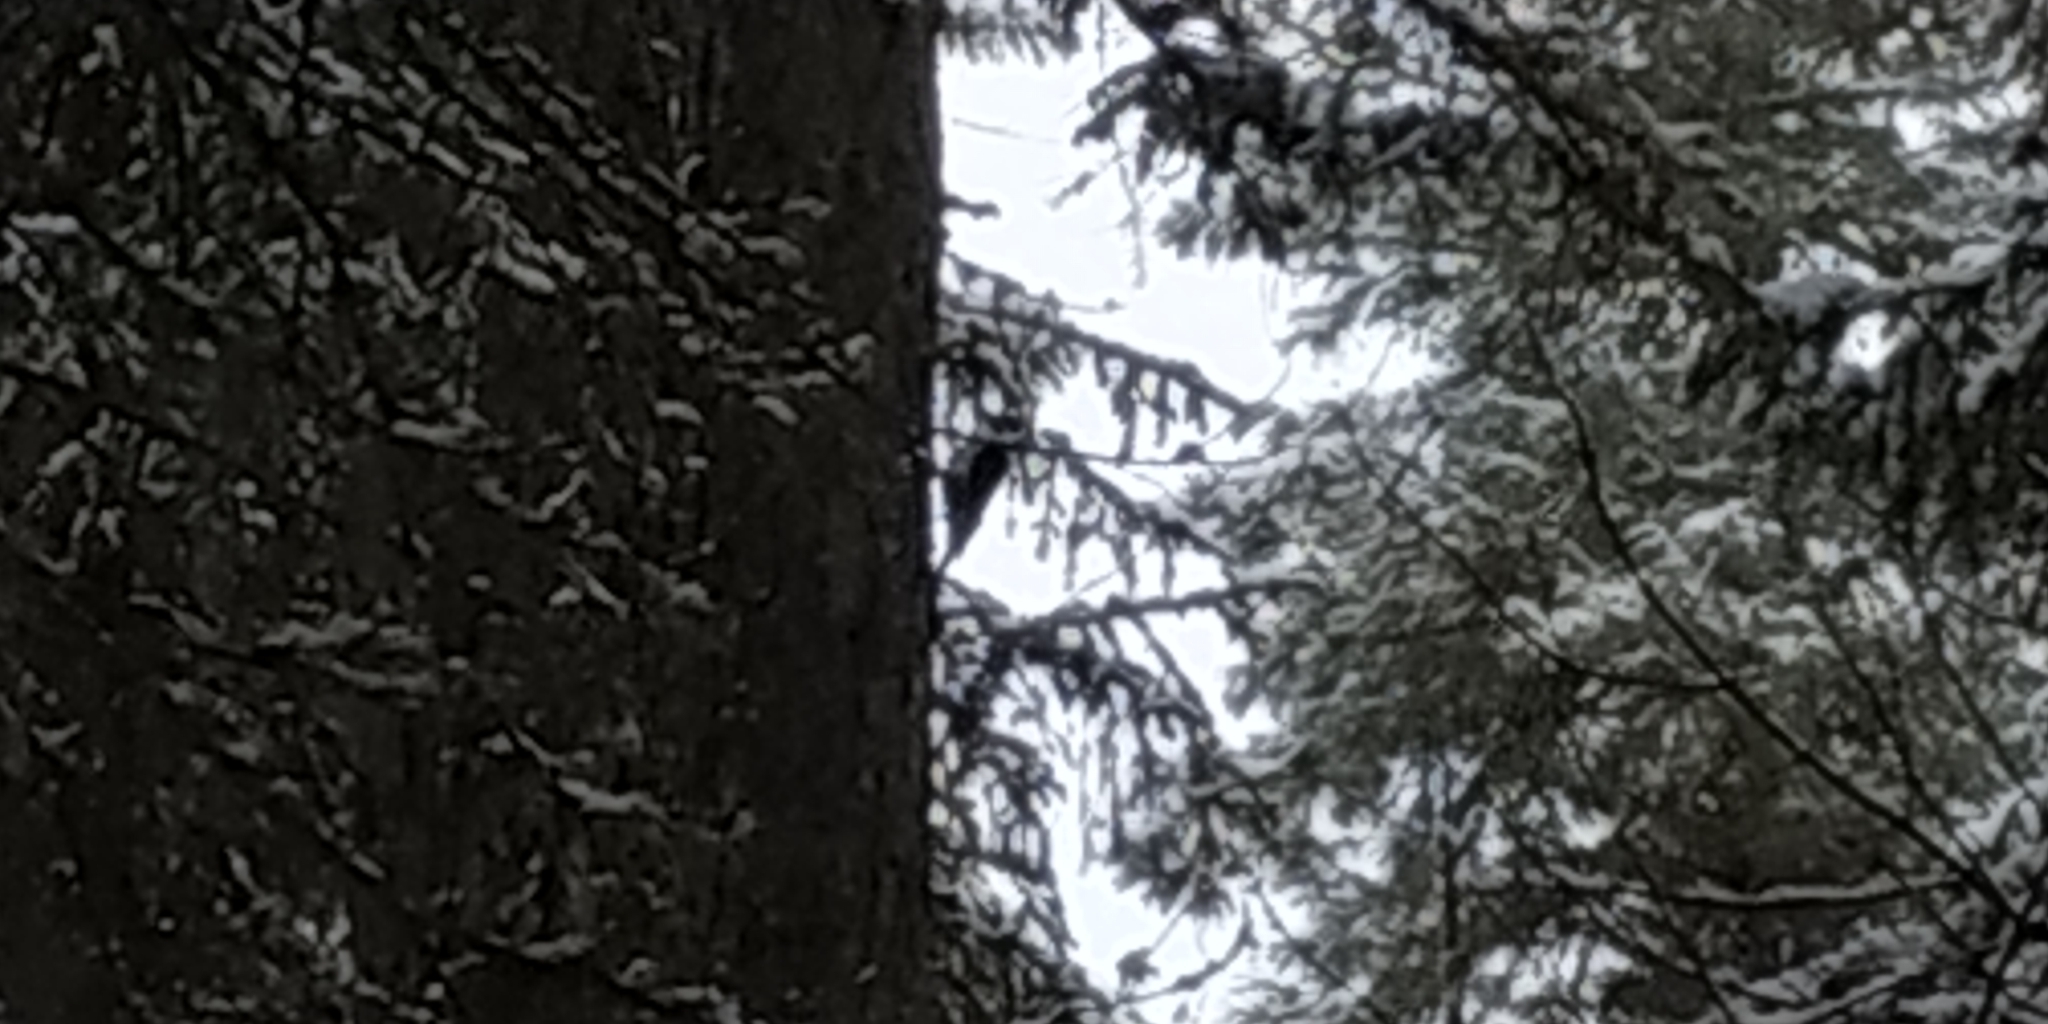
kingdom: Animalia
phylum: Chordata
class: Aves
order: Piciformes
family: Picidae
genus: Picoides
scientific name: Picoides tridactylus
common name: Eurasian three-toed woodpecker
